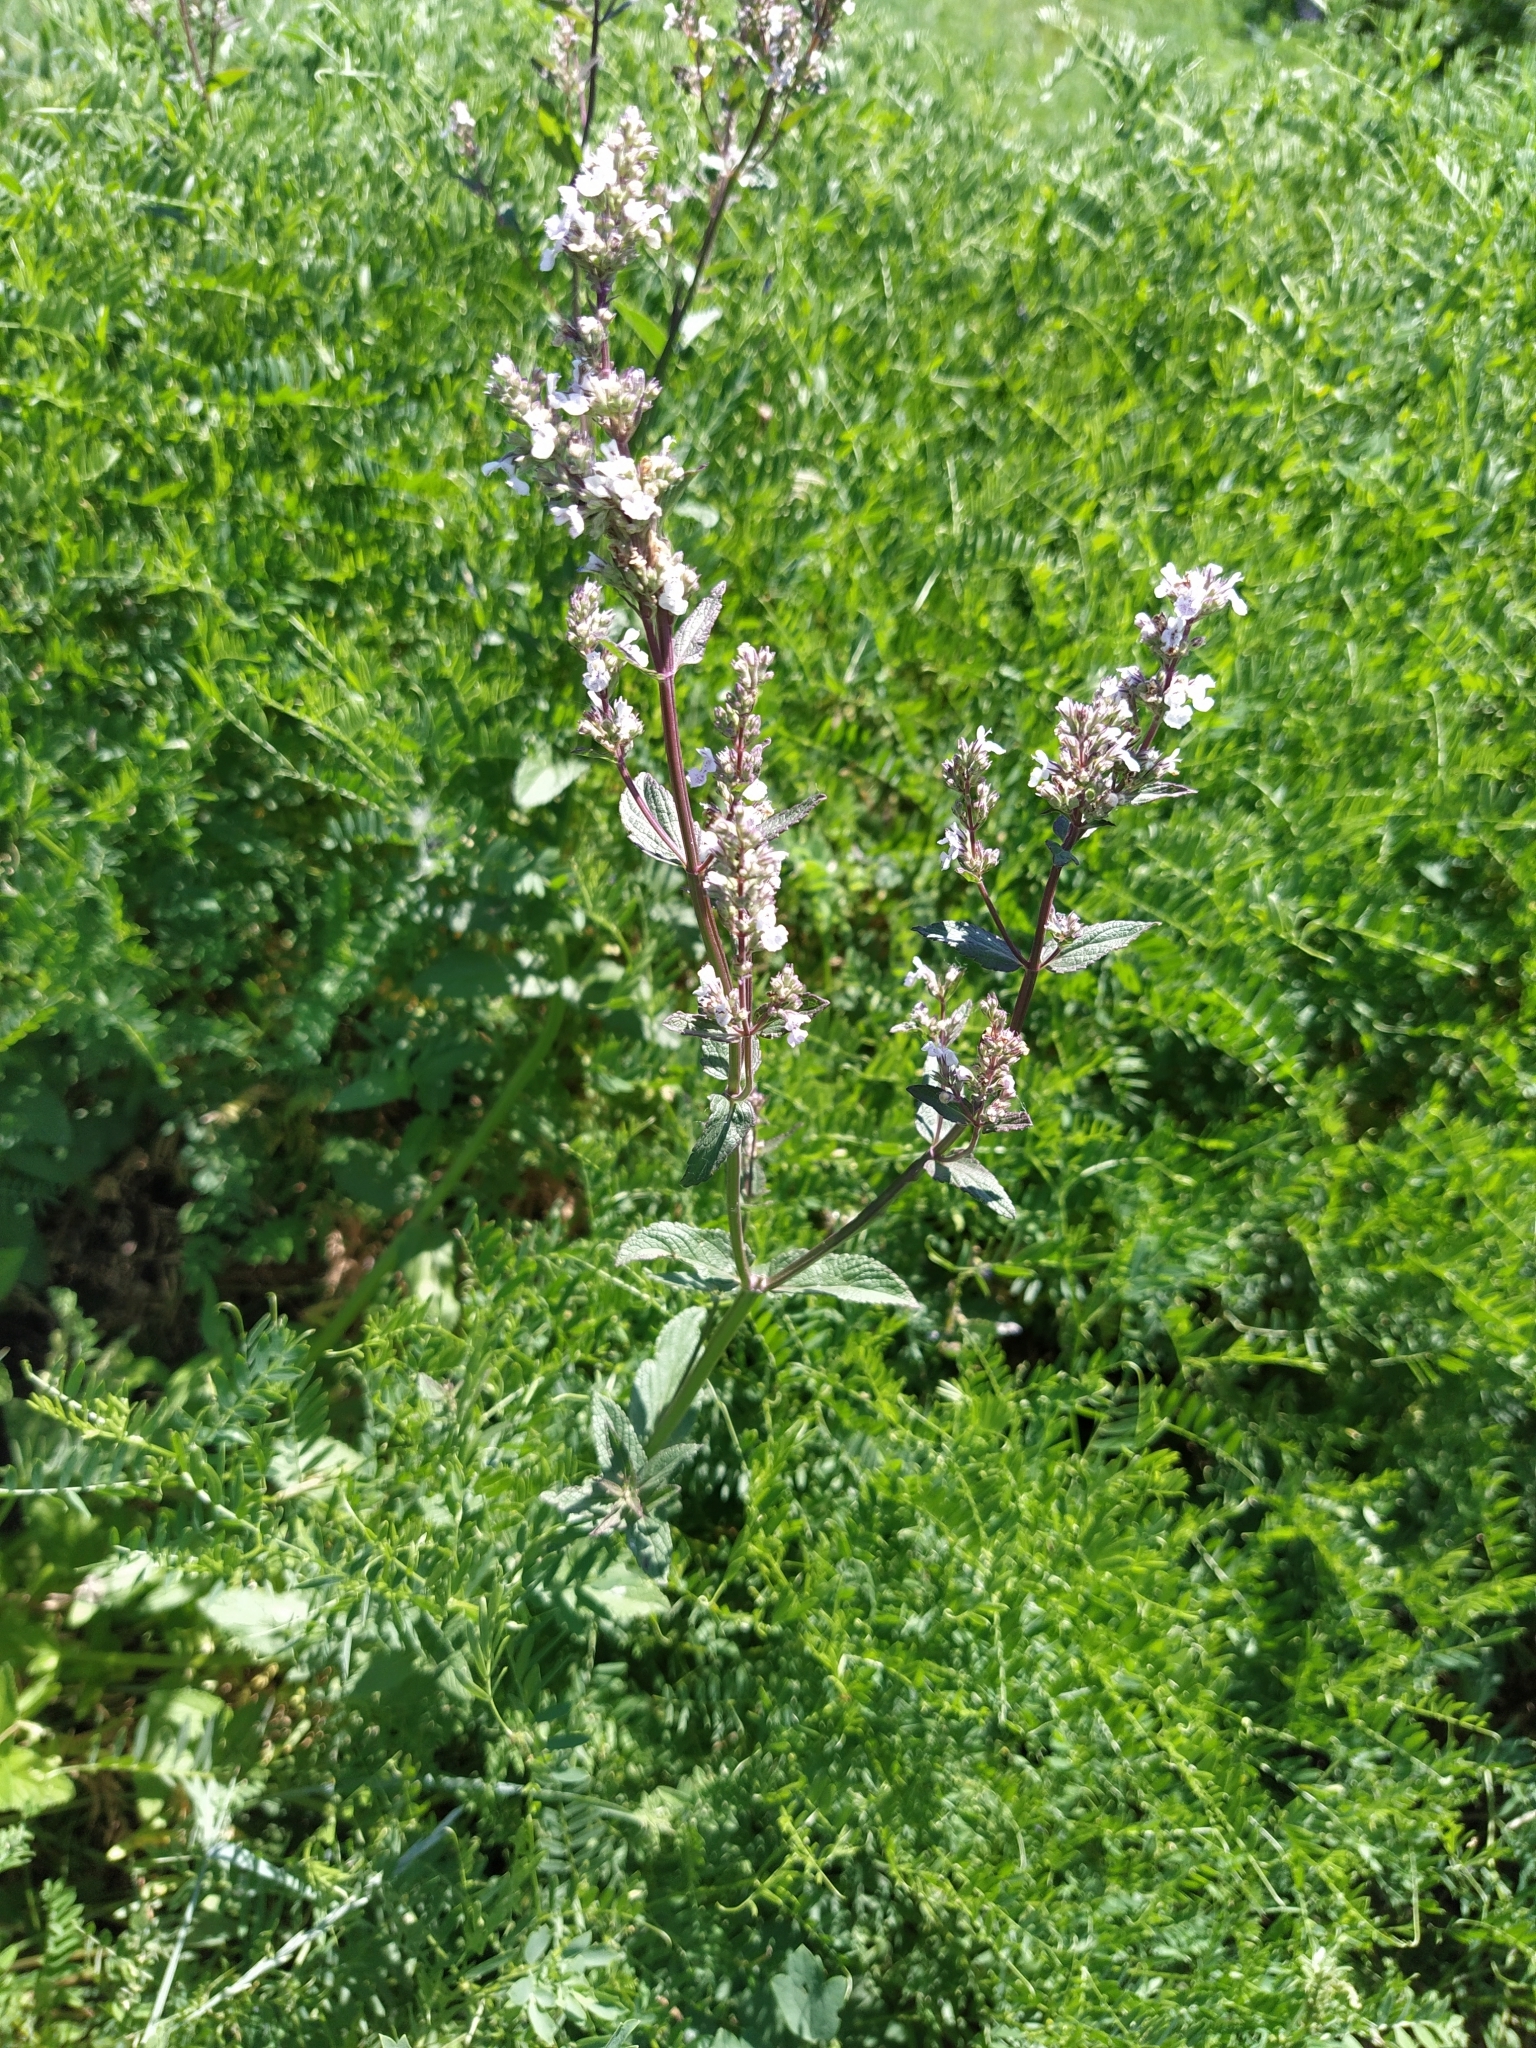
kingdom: Plantae
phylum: Tracheophyta
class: Magnoliopsida
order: Lamiales
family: Lamiaceae
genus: Nepeta
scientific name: Nepeta nuda
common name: Hairless catmint
